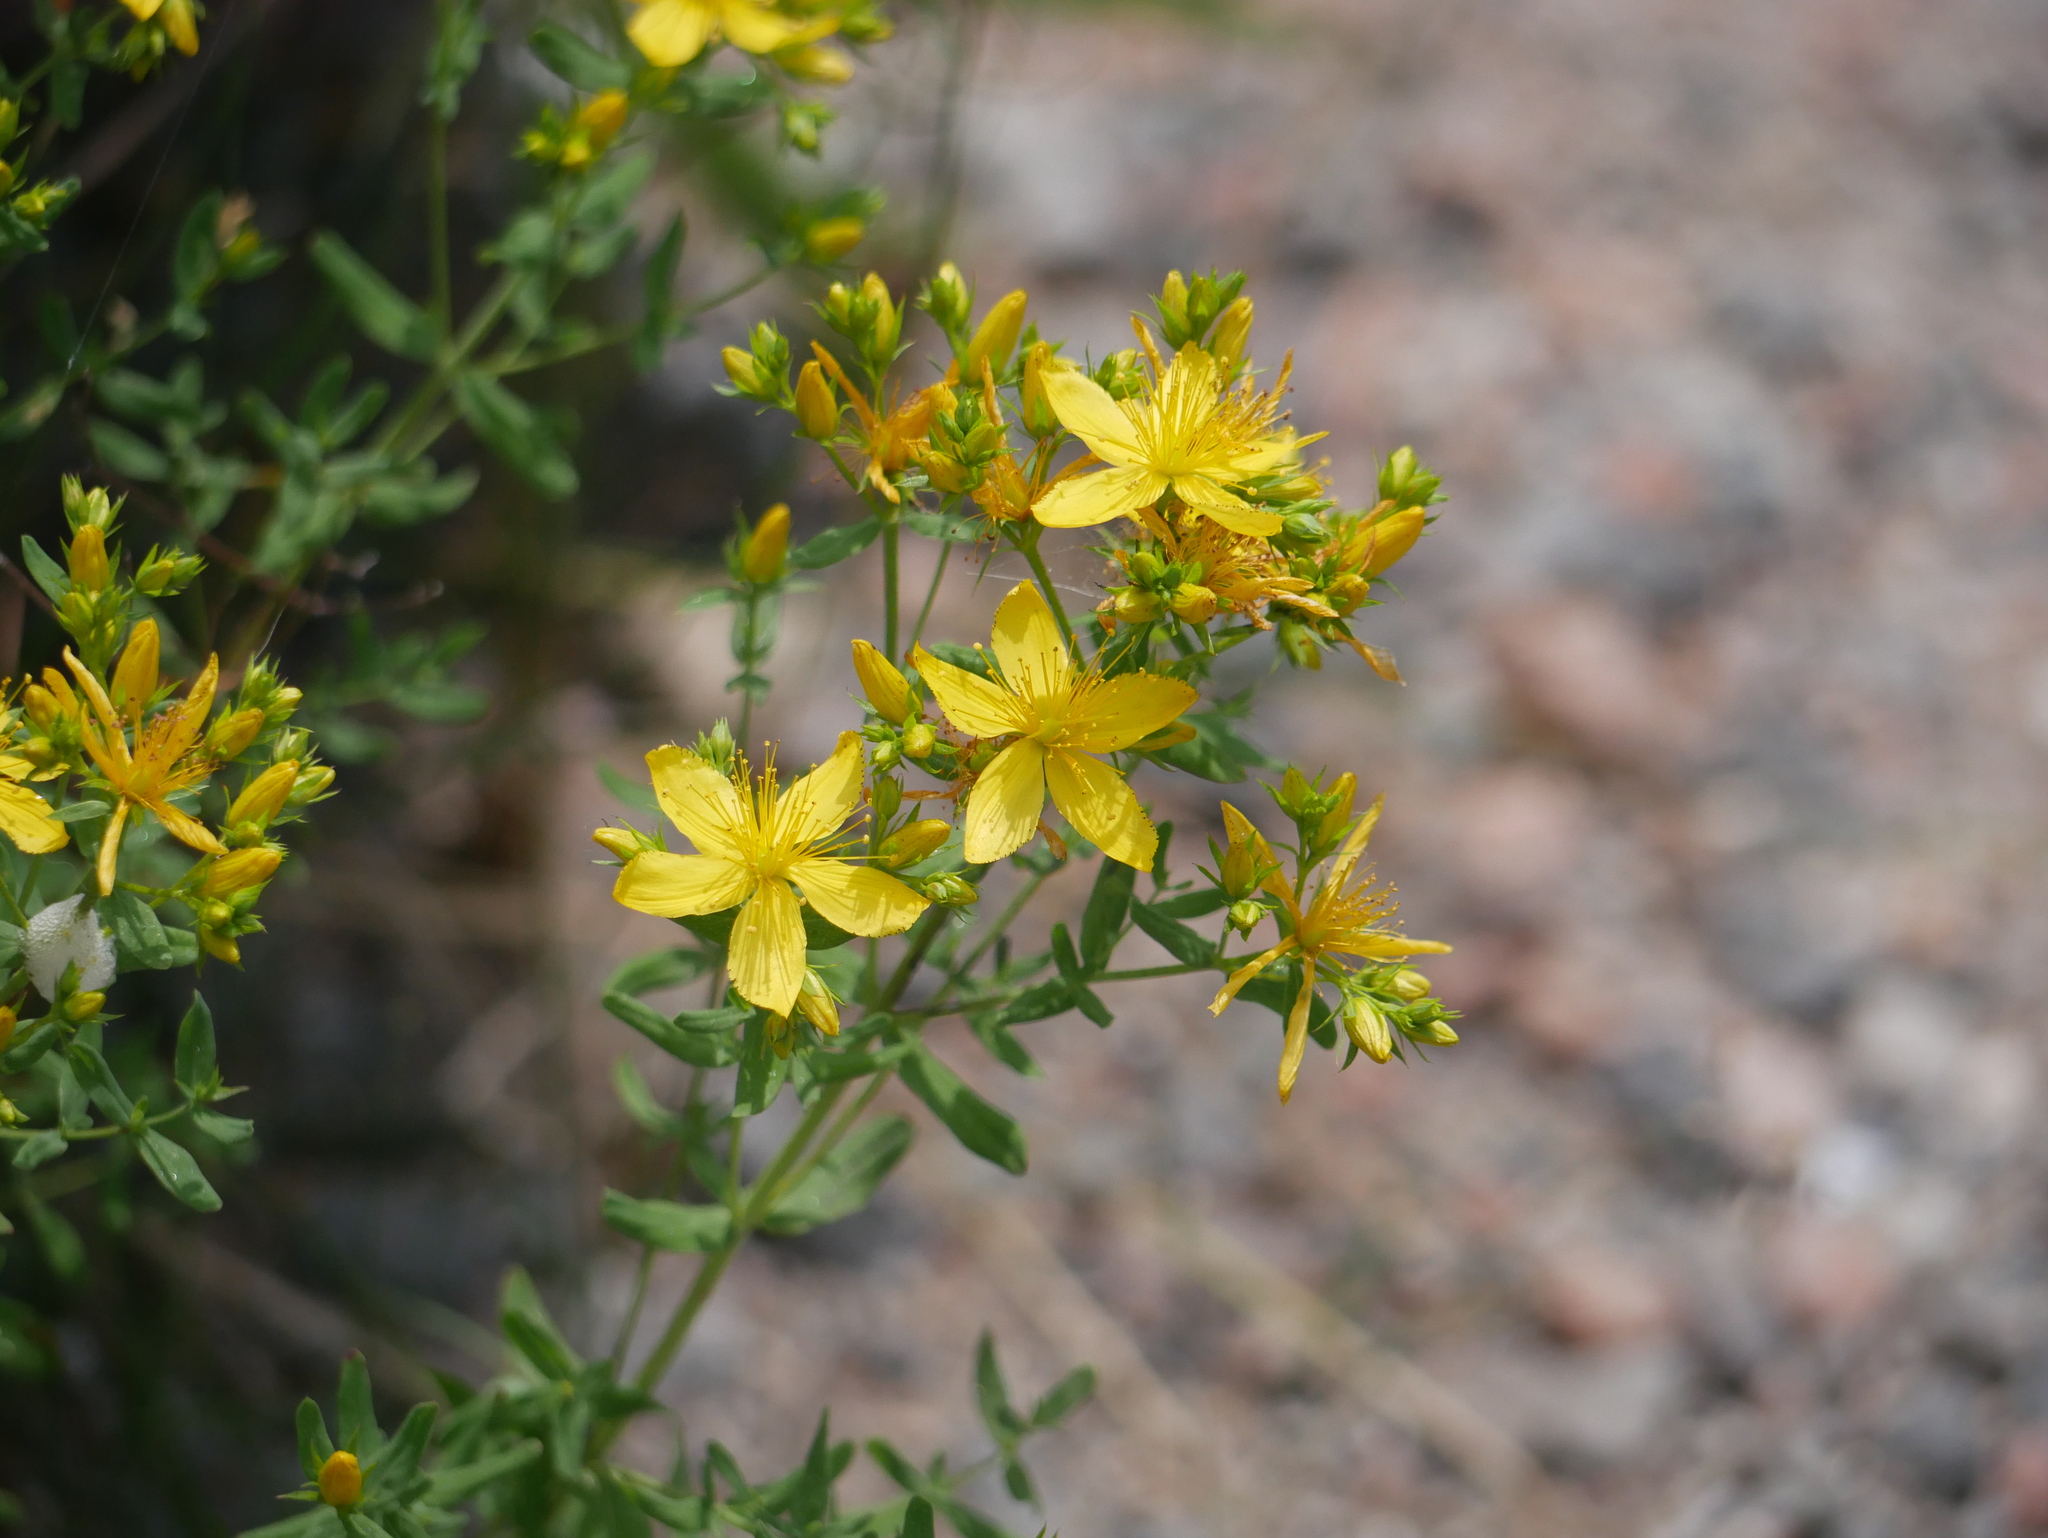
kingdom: Plantae
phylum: Tracheophyta
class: Magnoliopsida
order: Malpighiales
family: Hypericaceae
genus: Hypericum
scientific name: Hypericum perforatum
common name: Common st. johnswort
